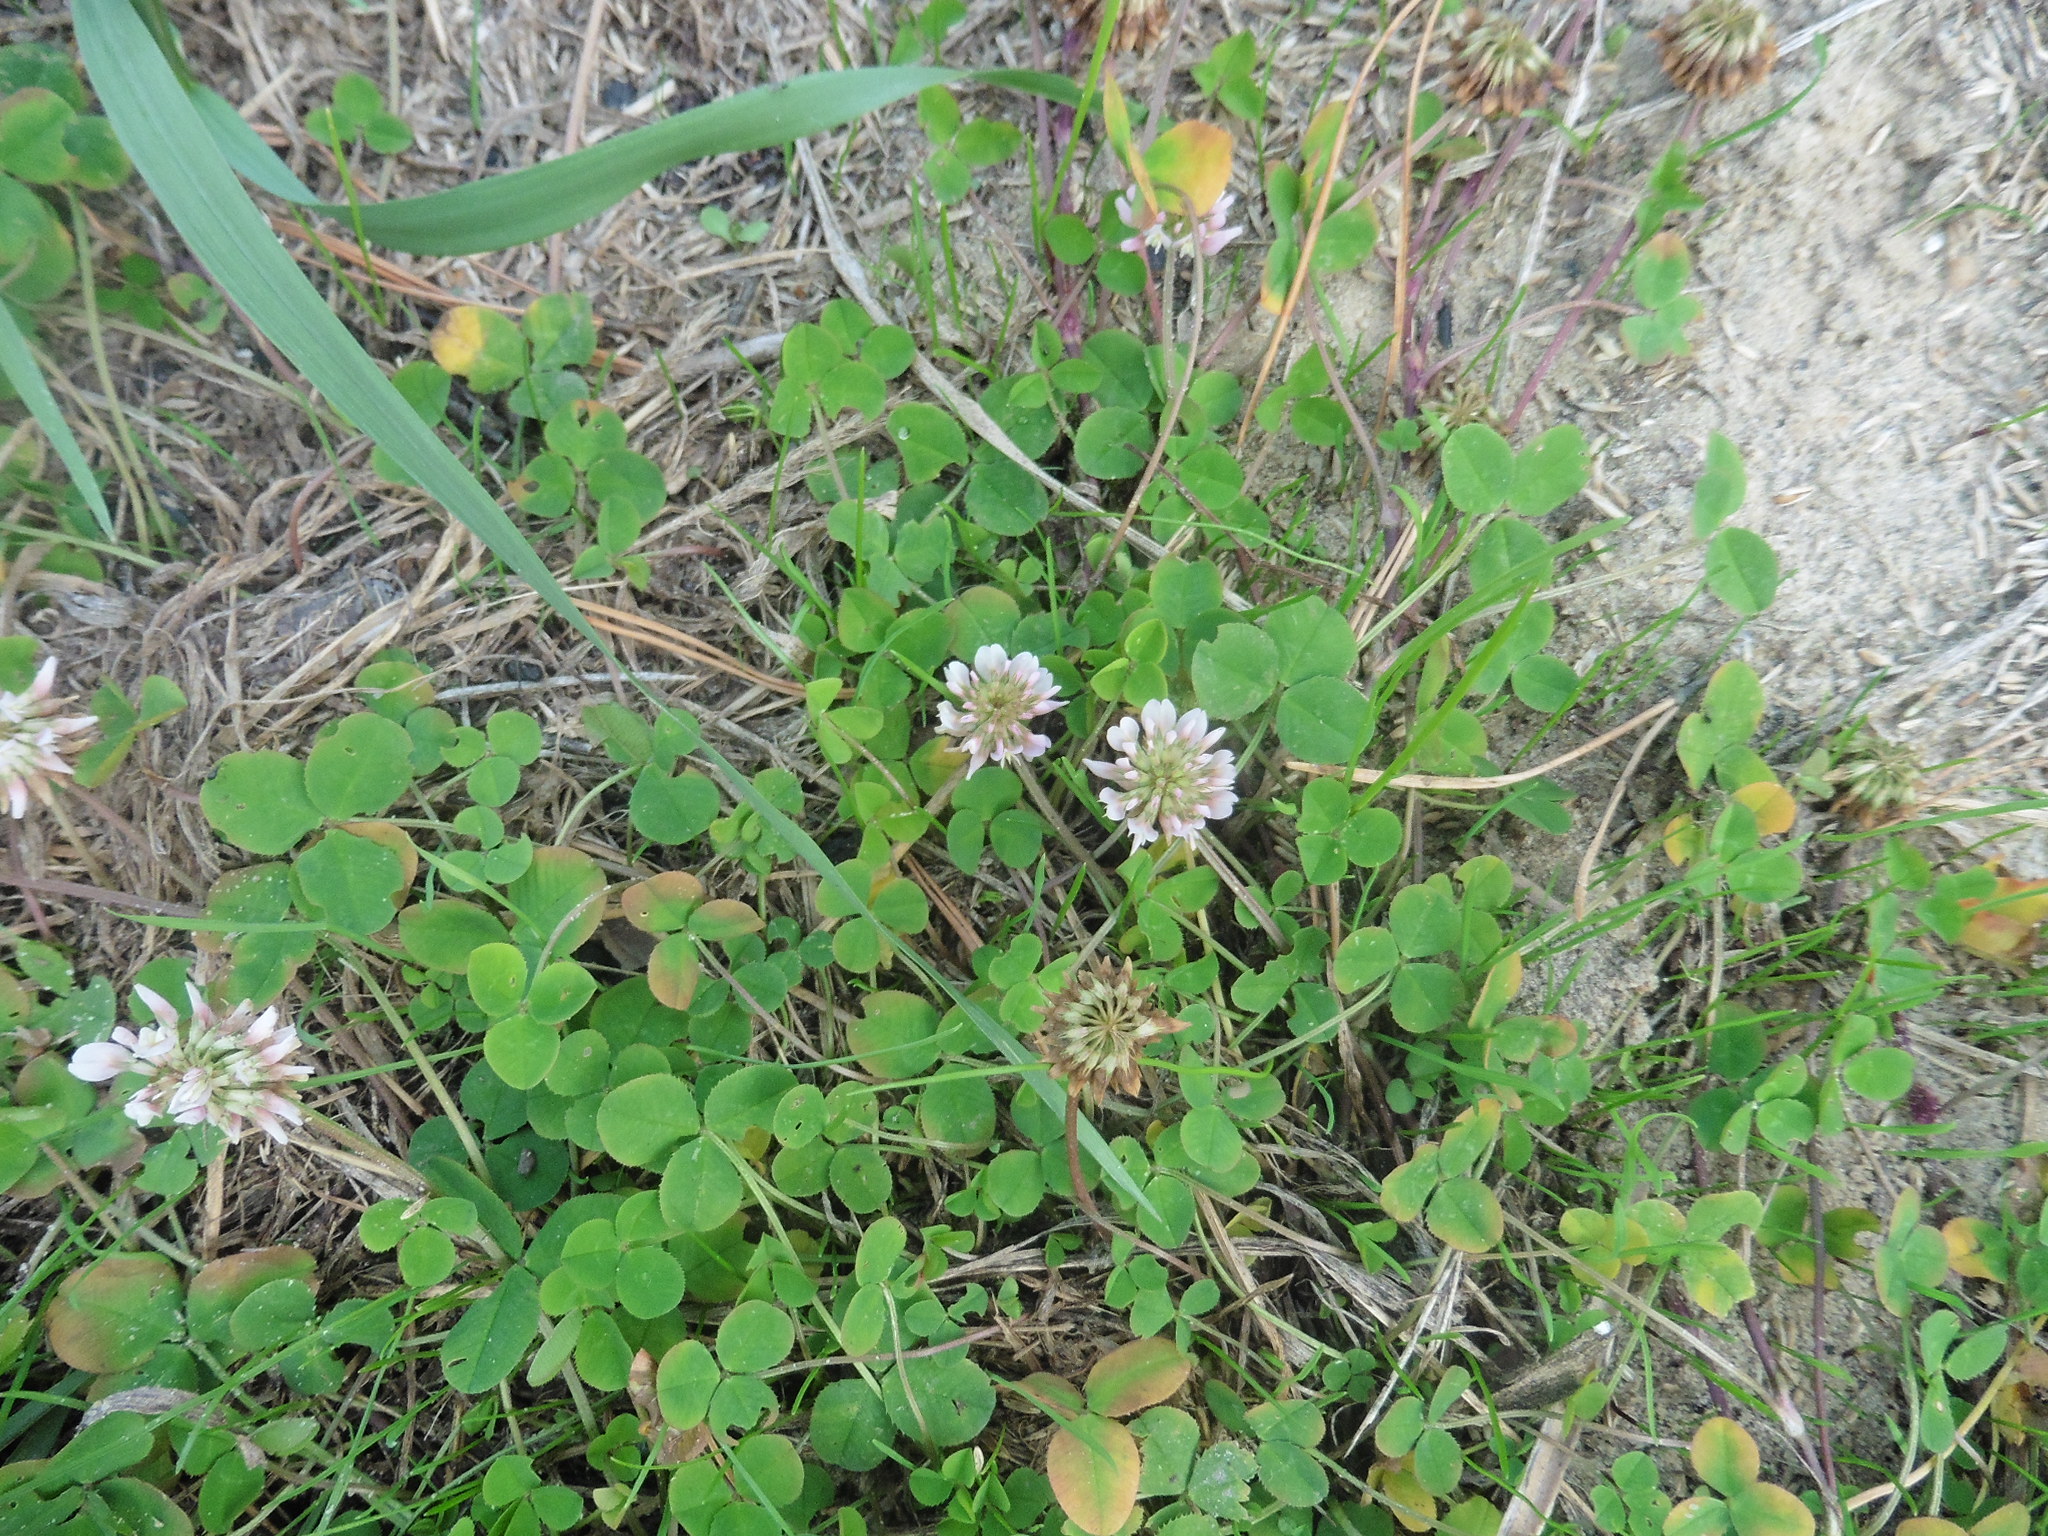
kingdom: Plantae
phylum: Tracheophyta
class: Magnoliopsida
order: Fabales
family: Fabaceae
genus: Trifolium
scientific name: Trifolium repens
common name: White clover
